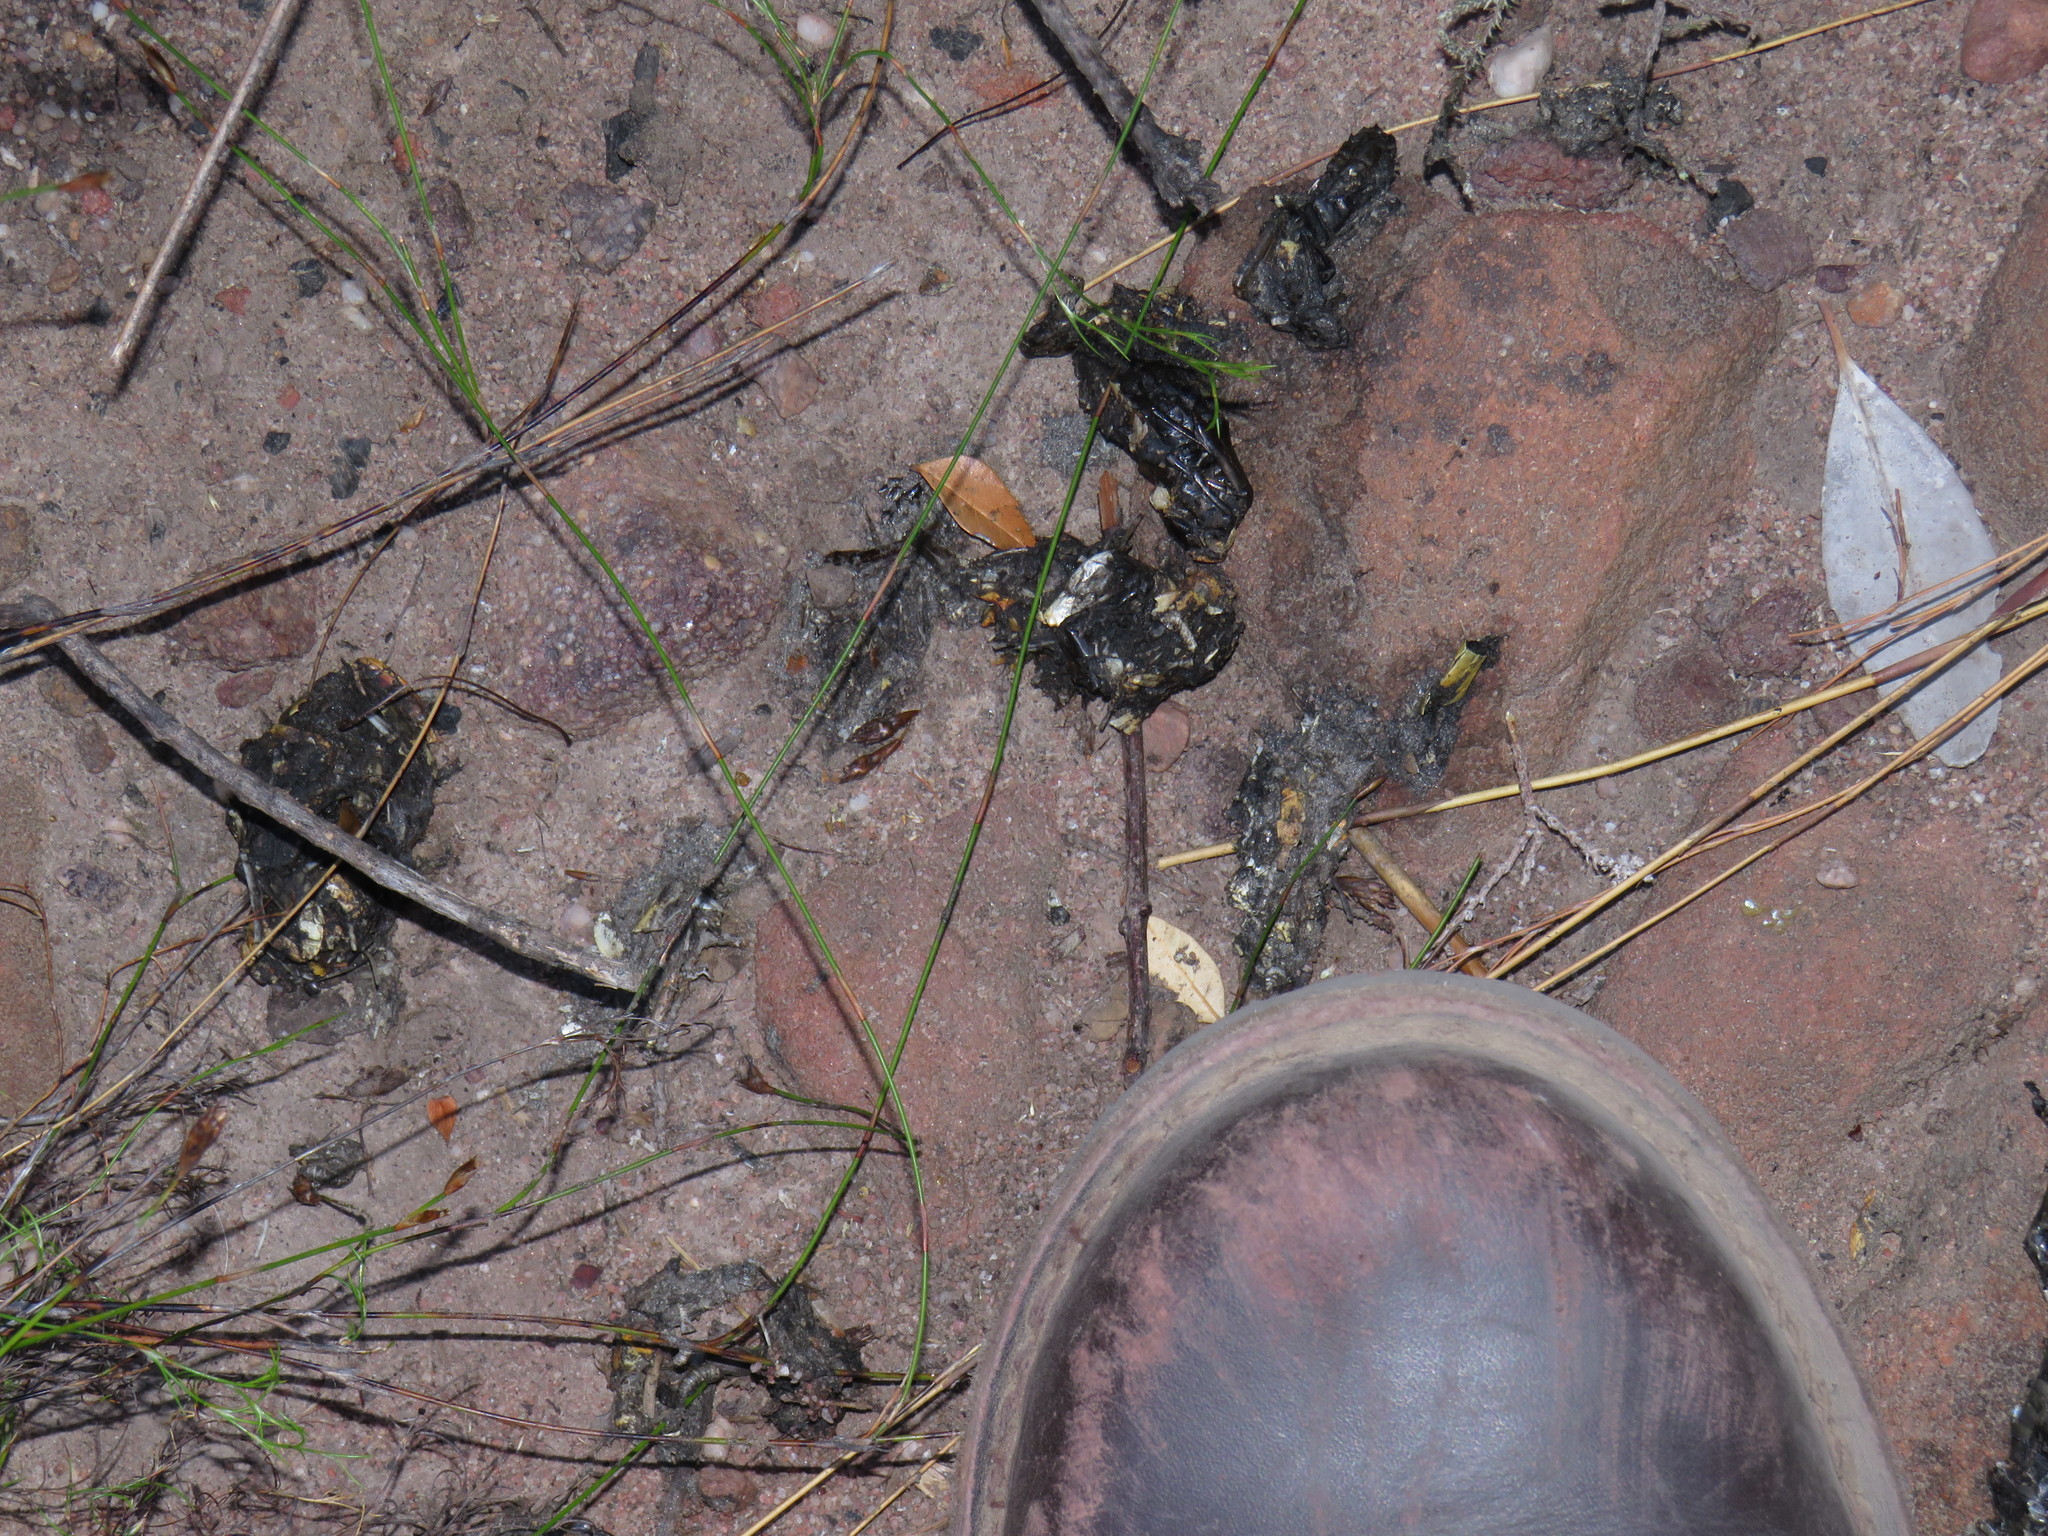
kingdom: Animalia
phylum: Chordata
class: Mammalia
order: Carnivora
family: Herpestidae
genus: Atilax
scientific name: Atilax paludinosus
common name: Marsh mongoose
